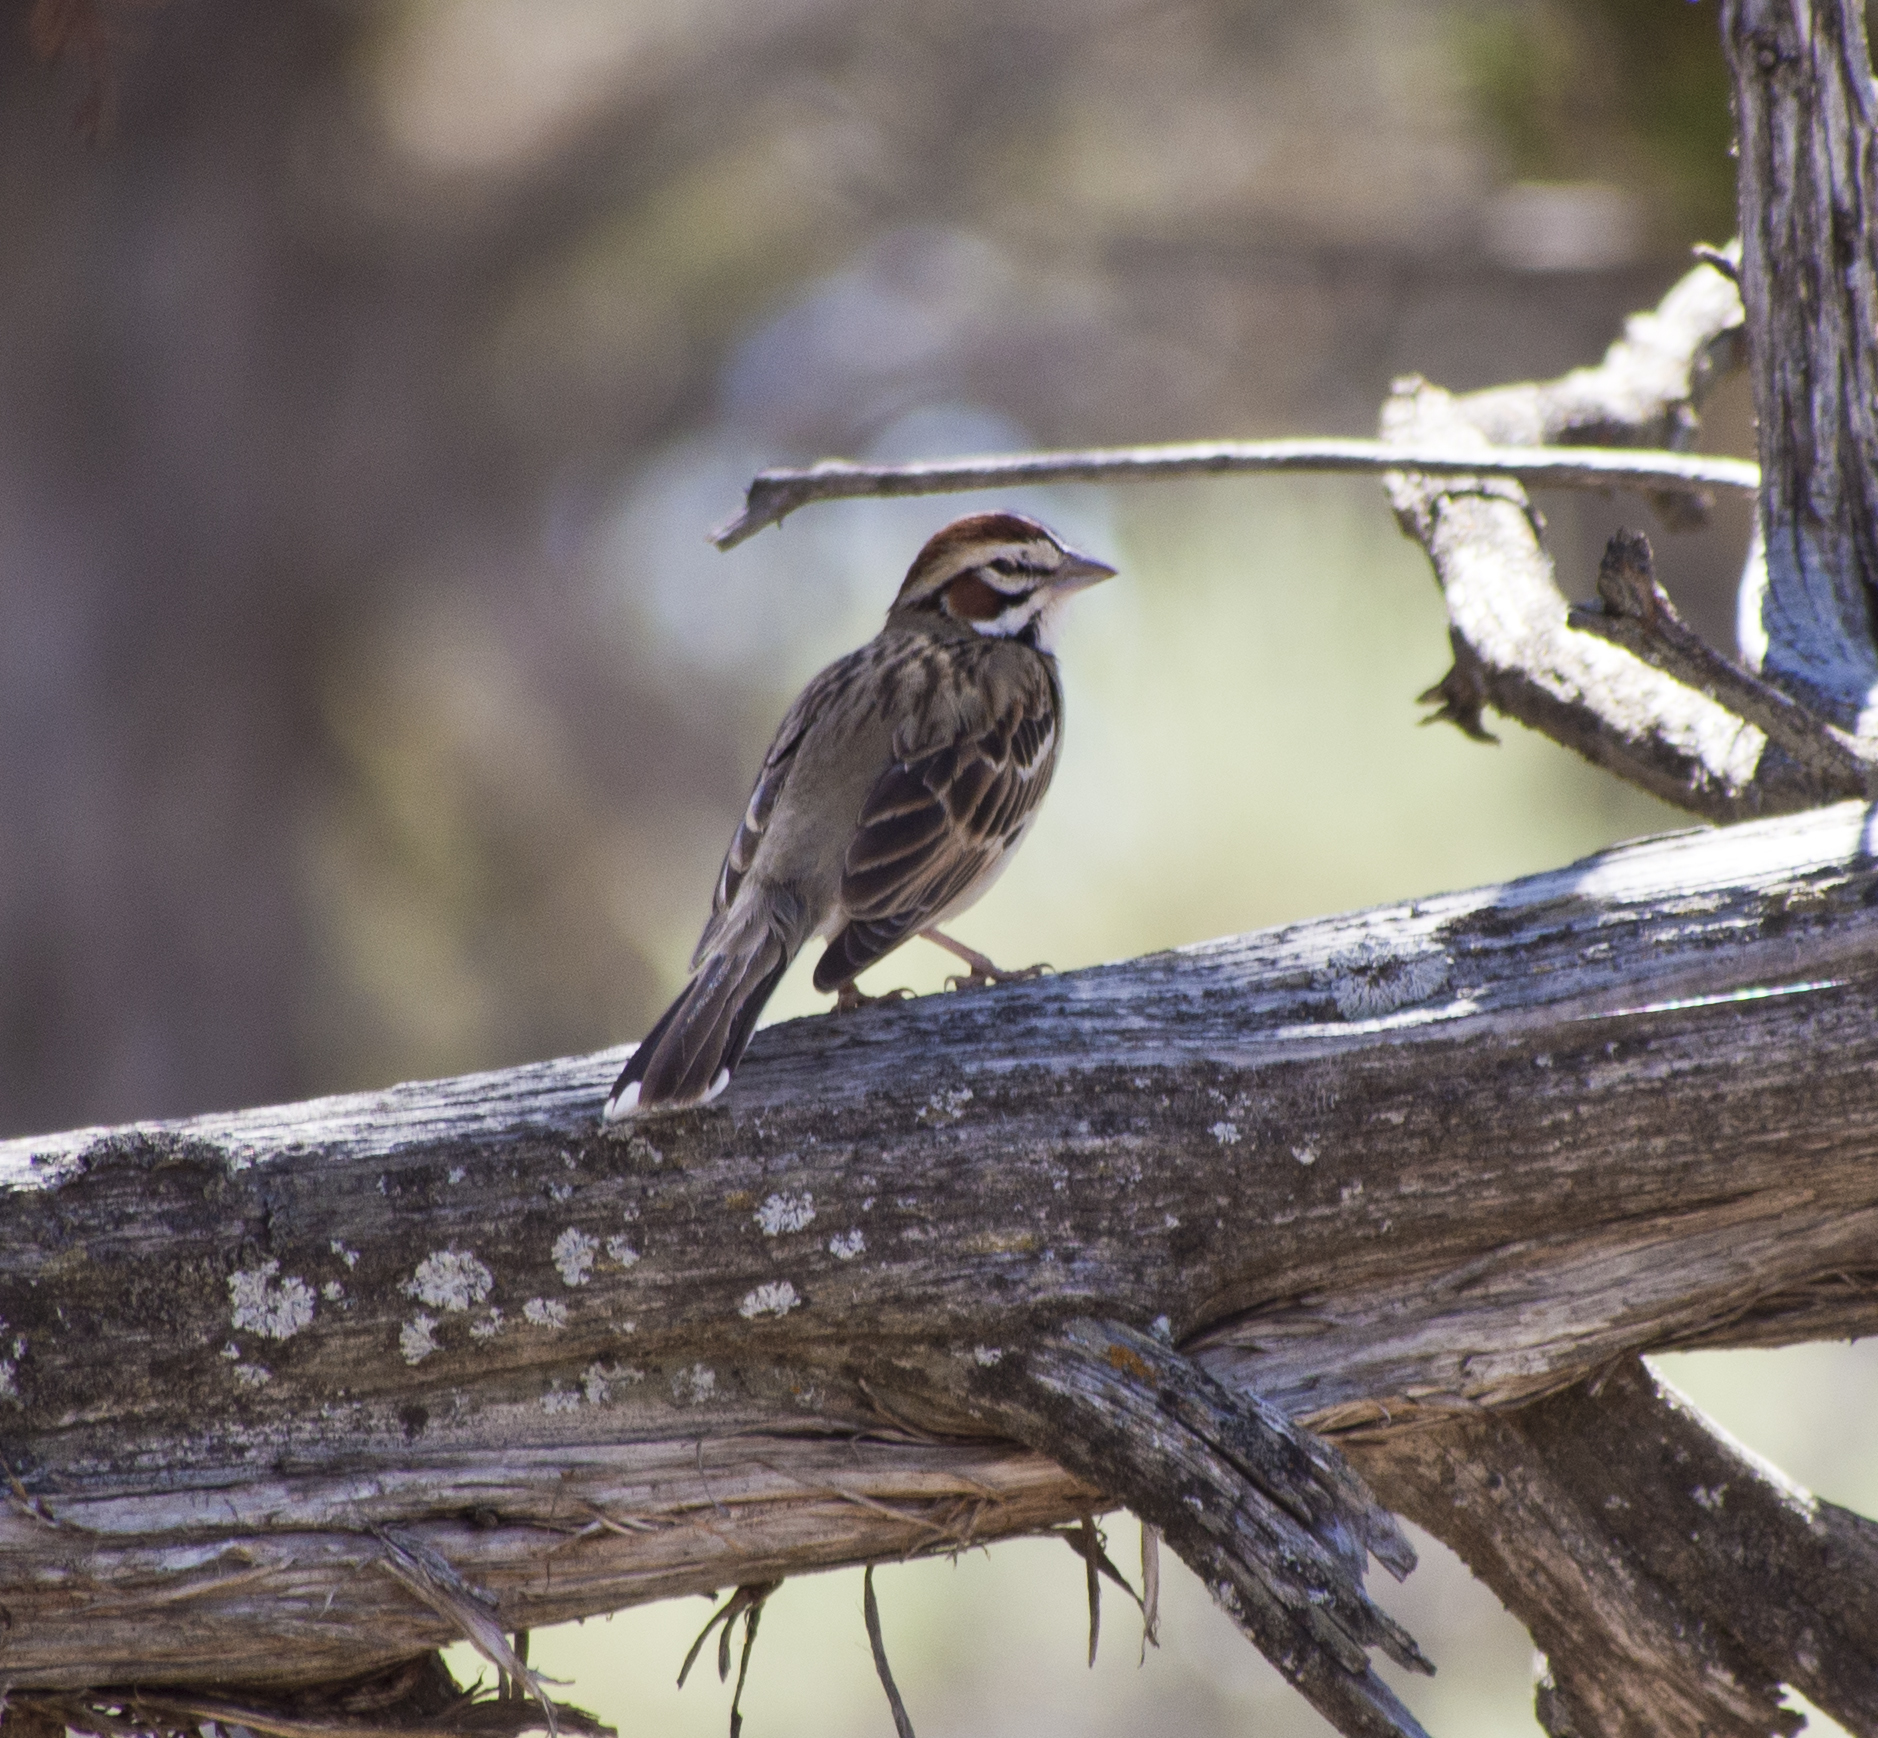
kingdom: Animalia
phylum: Chordata
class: Aves
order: Passeriformes
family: Passerellidae
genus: Chondestes
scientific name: Chondestes grammacus
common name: Lark sparrow
